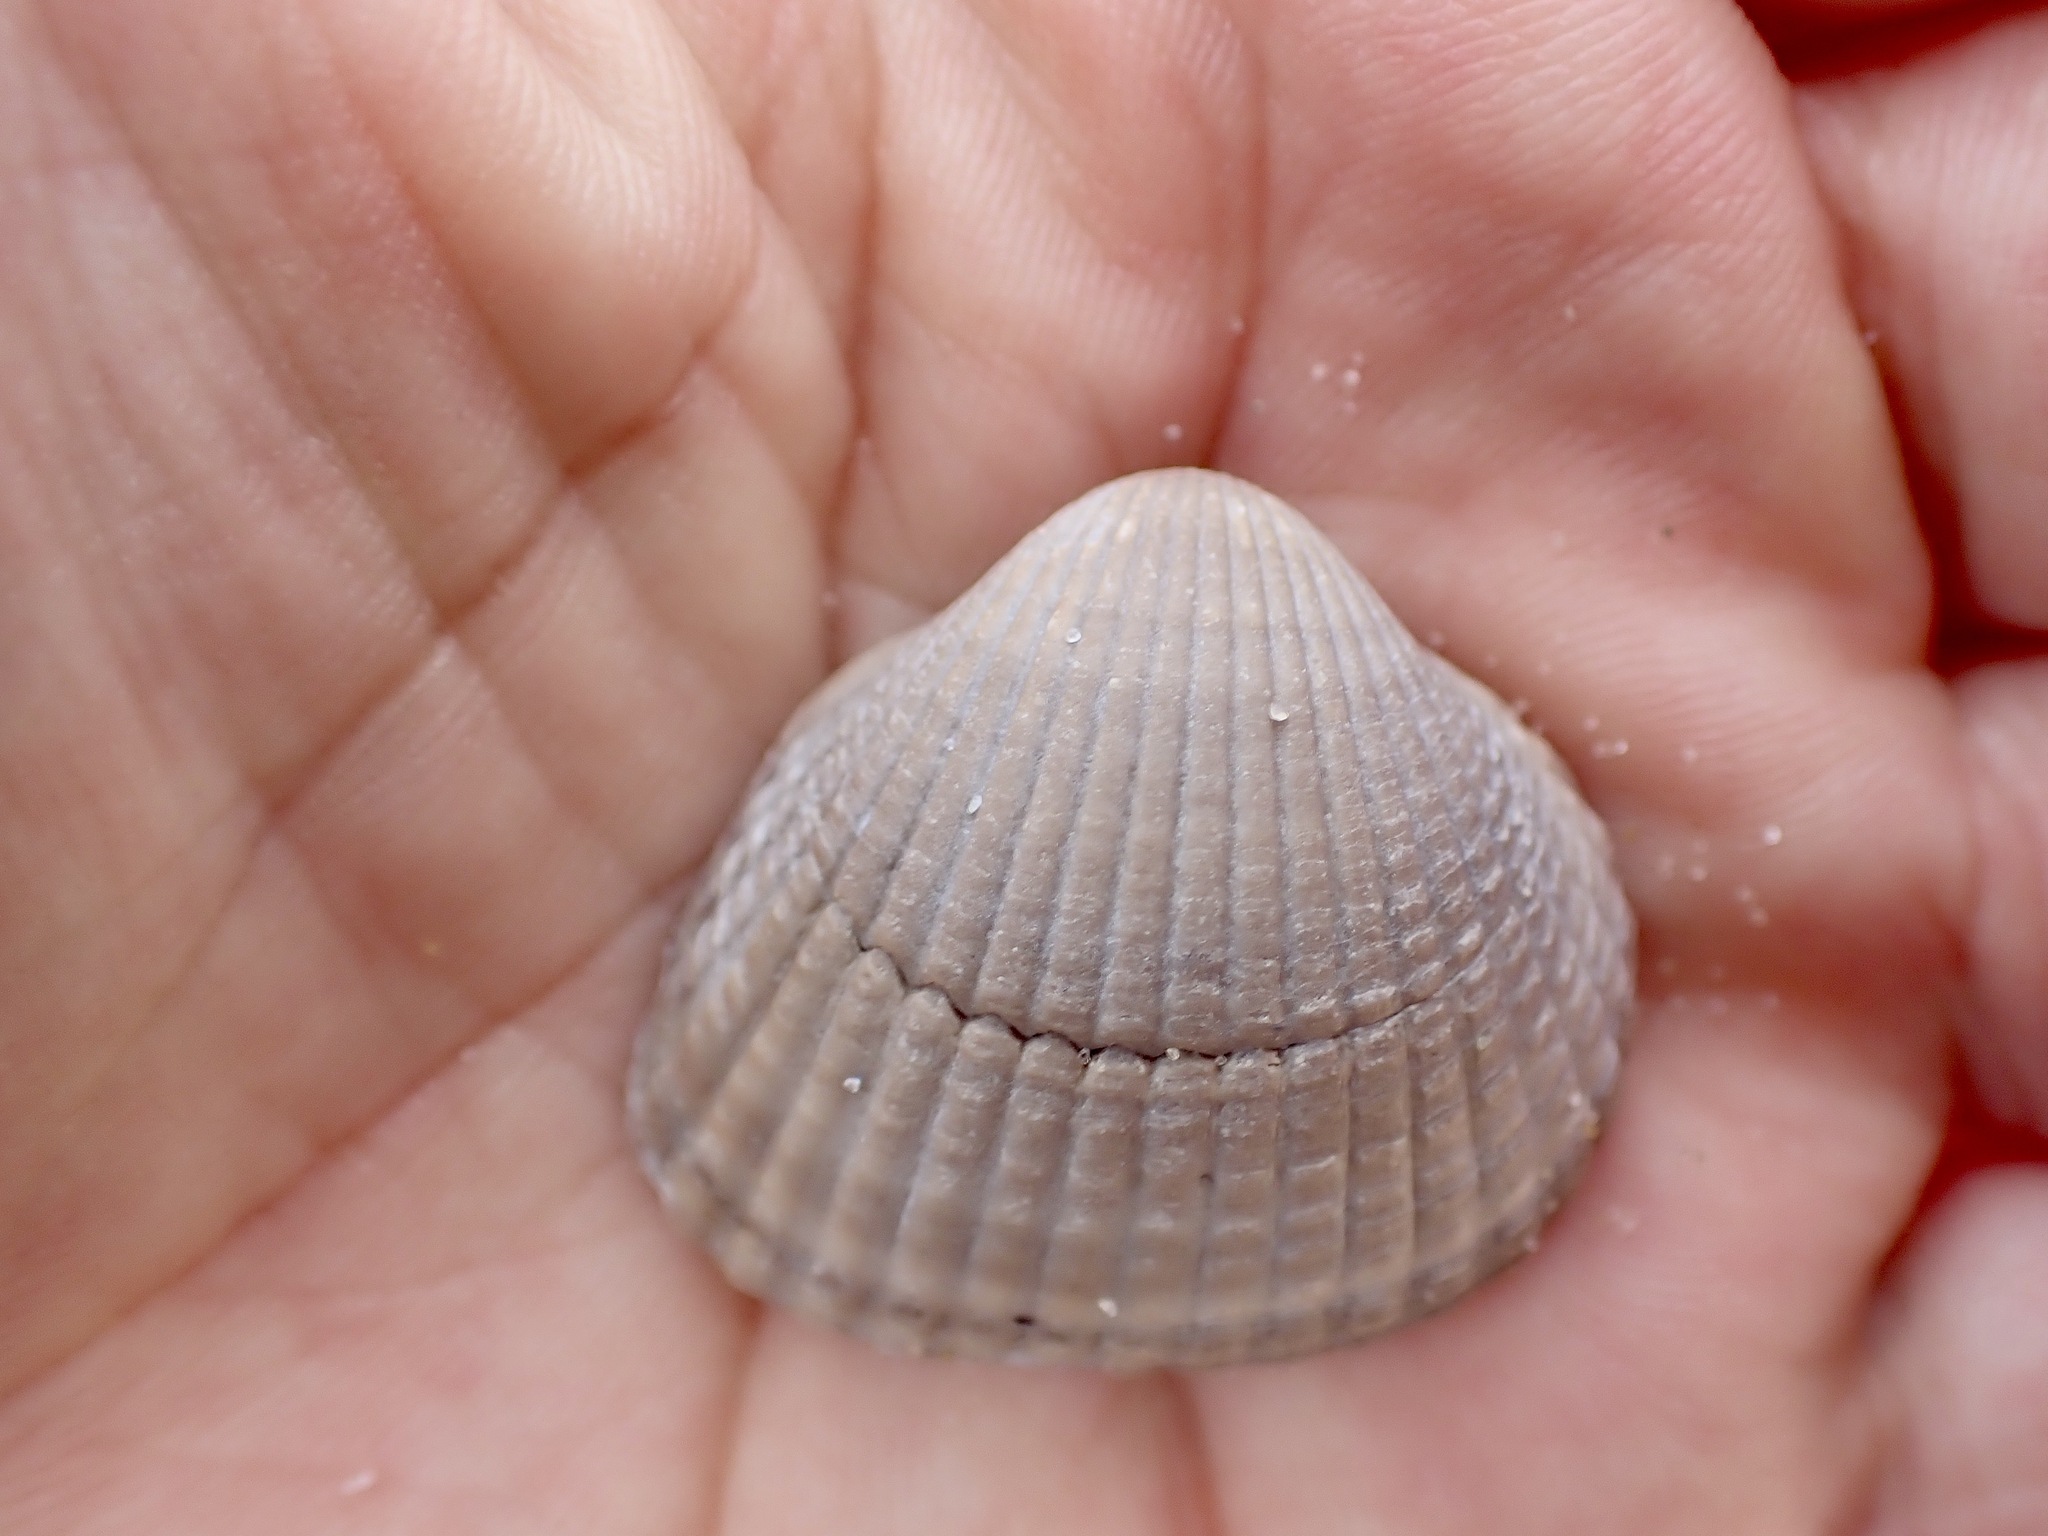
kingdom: Animalia
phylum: Mollusca
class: Bivalvia
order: Cardiida
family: Cardiidae
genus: Cerastoderma
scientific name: Cerastoderma edule
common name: Common cockle
